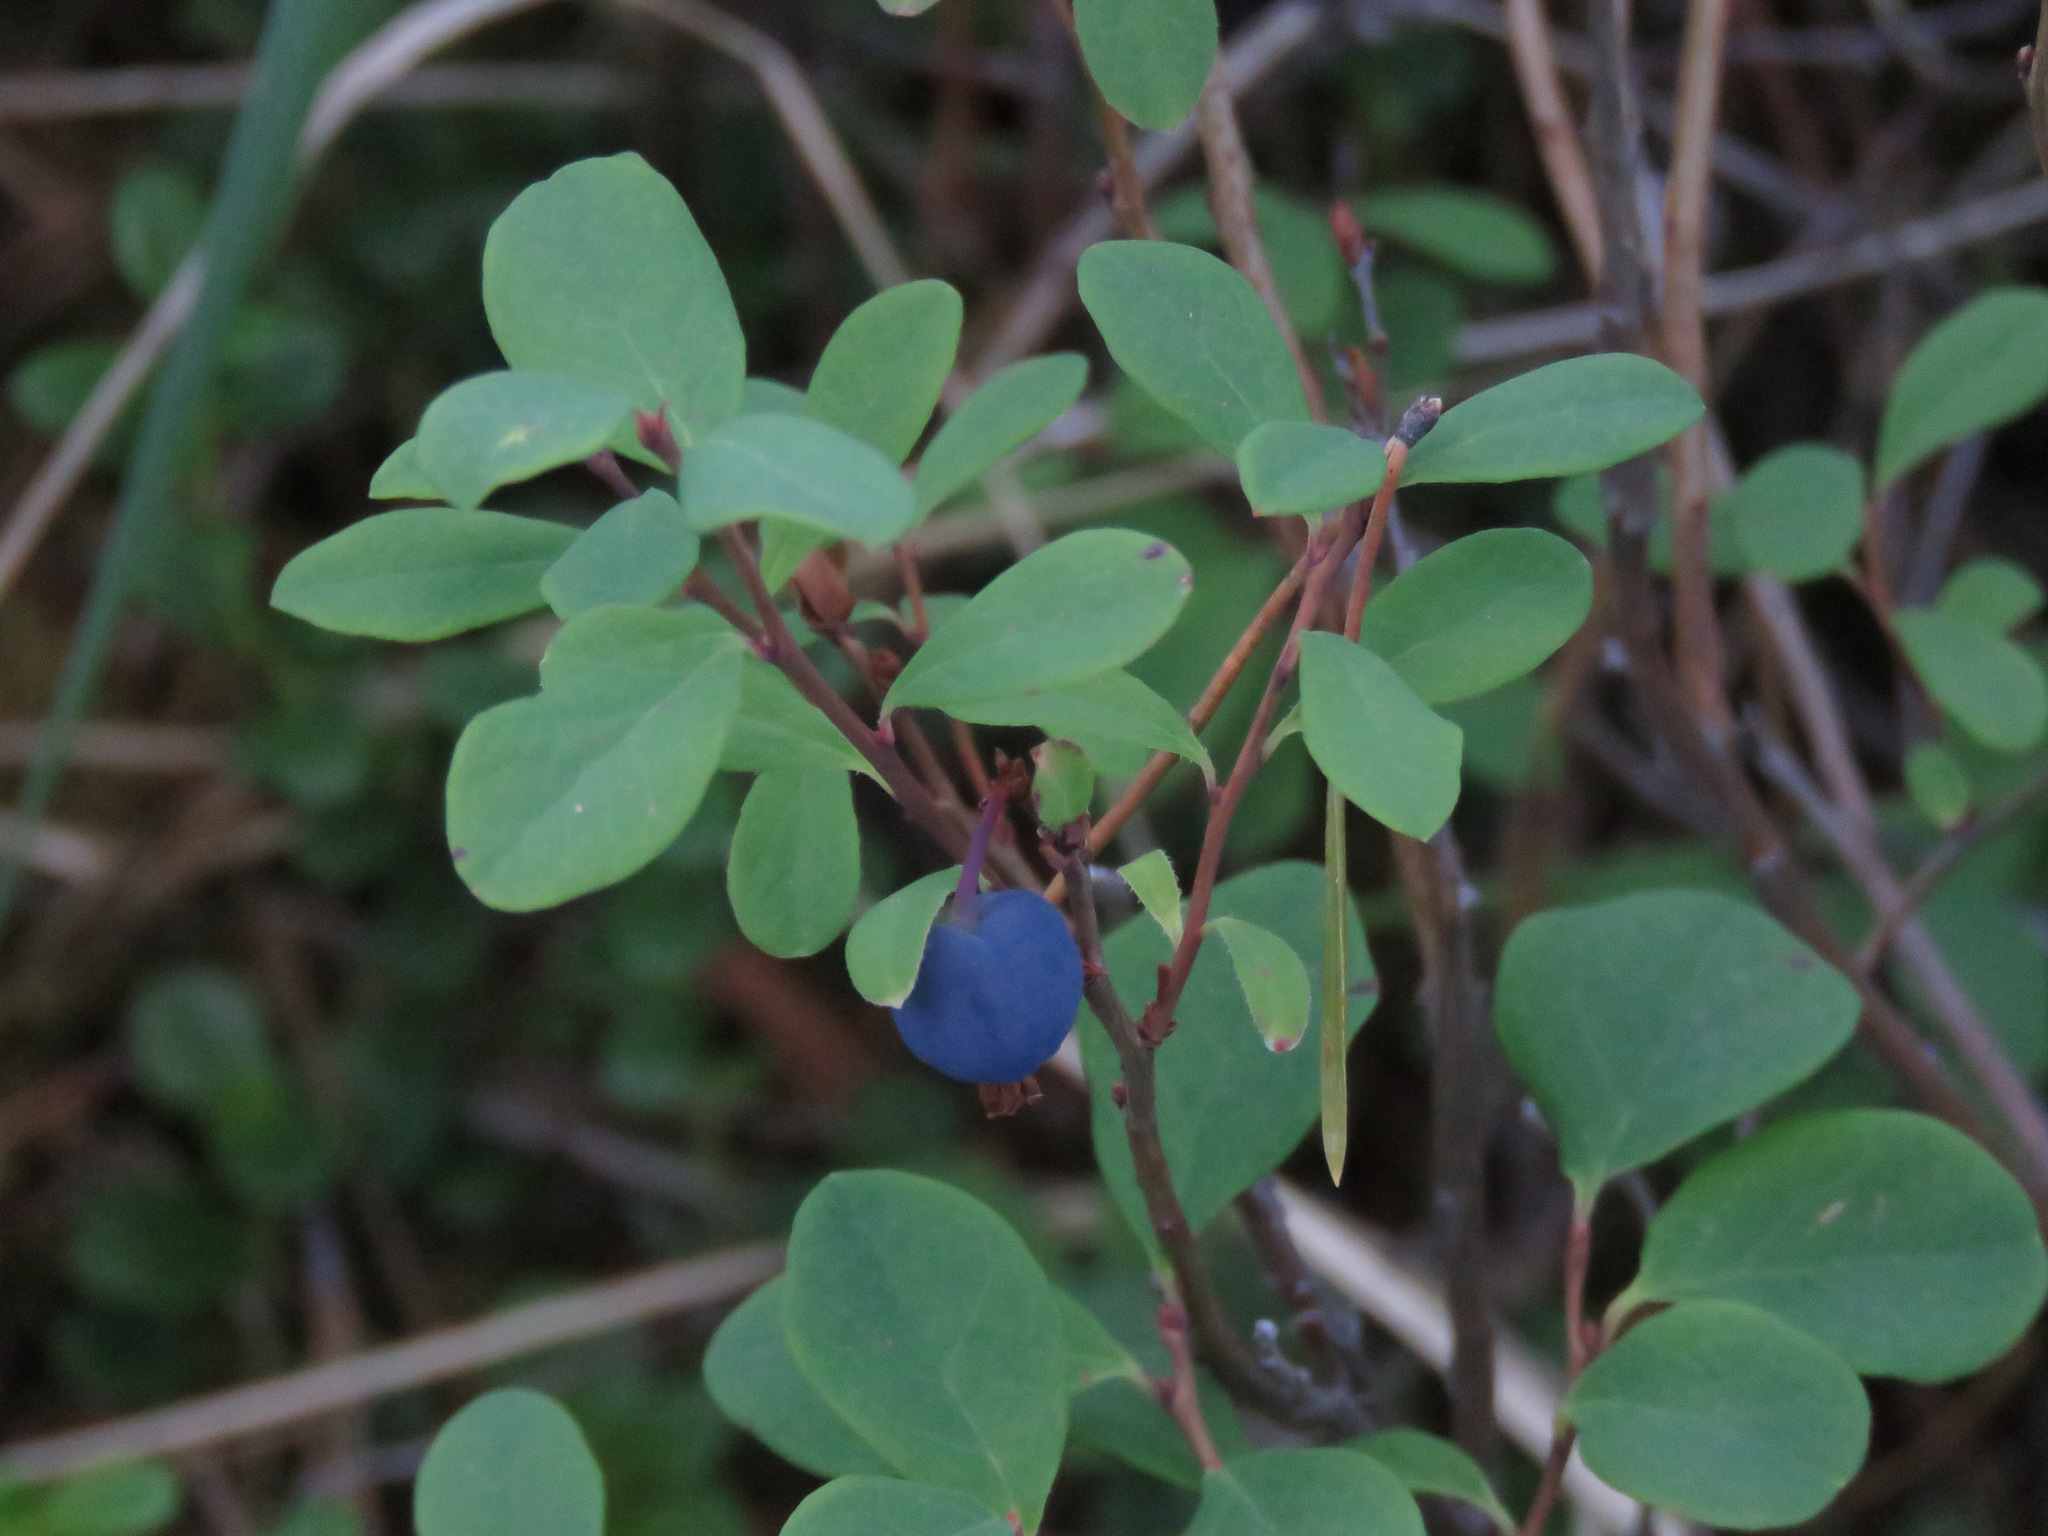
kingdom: Plantae
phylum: Tracheophyta
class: Magnoliopsida
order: Ericales
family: Ericaceae
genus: Vaccinium
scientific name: Vaccinium uliginosum
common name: Bog bilberry
